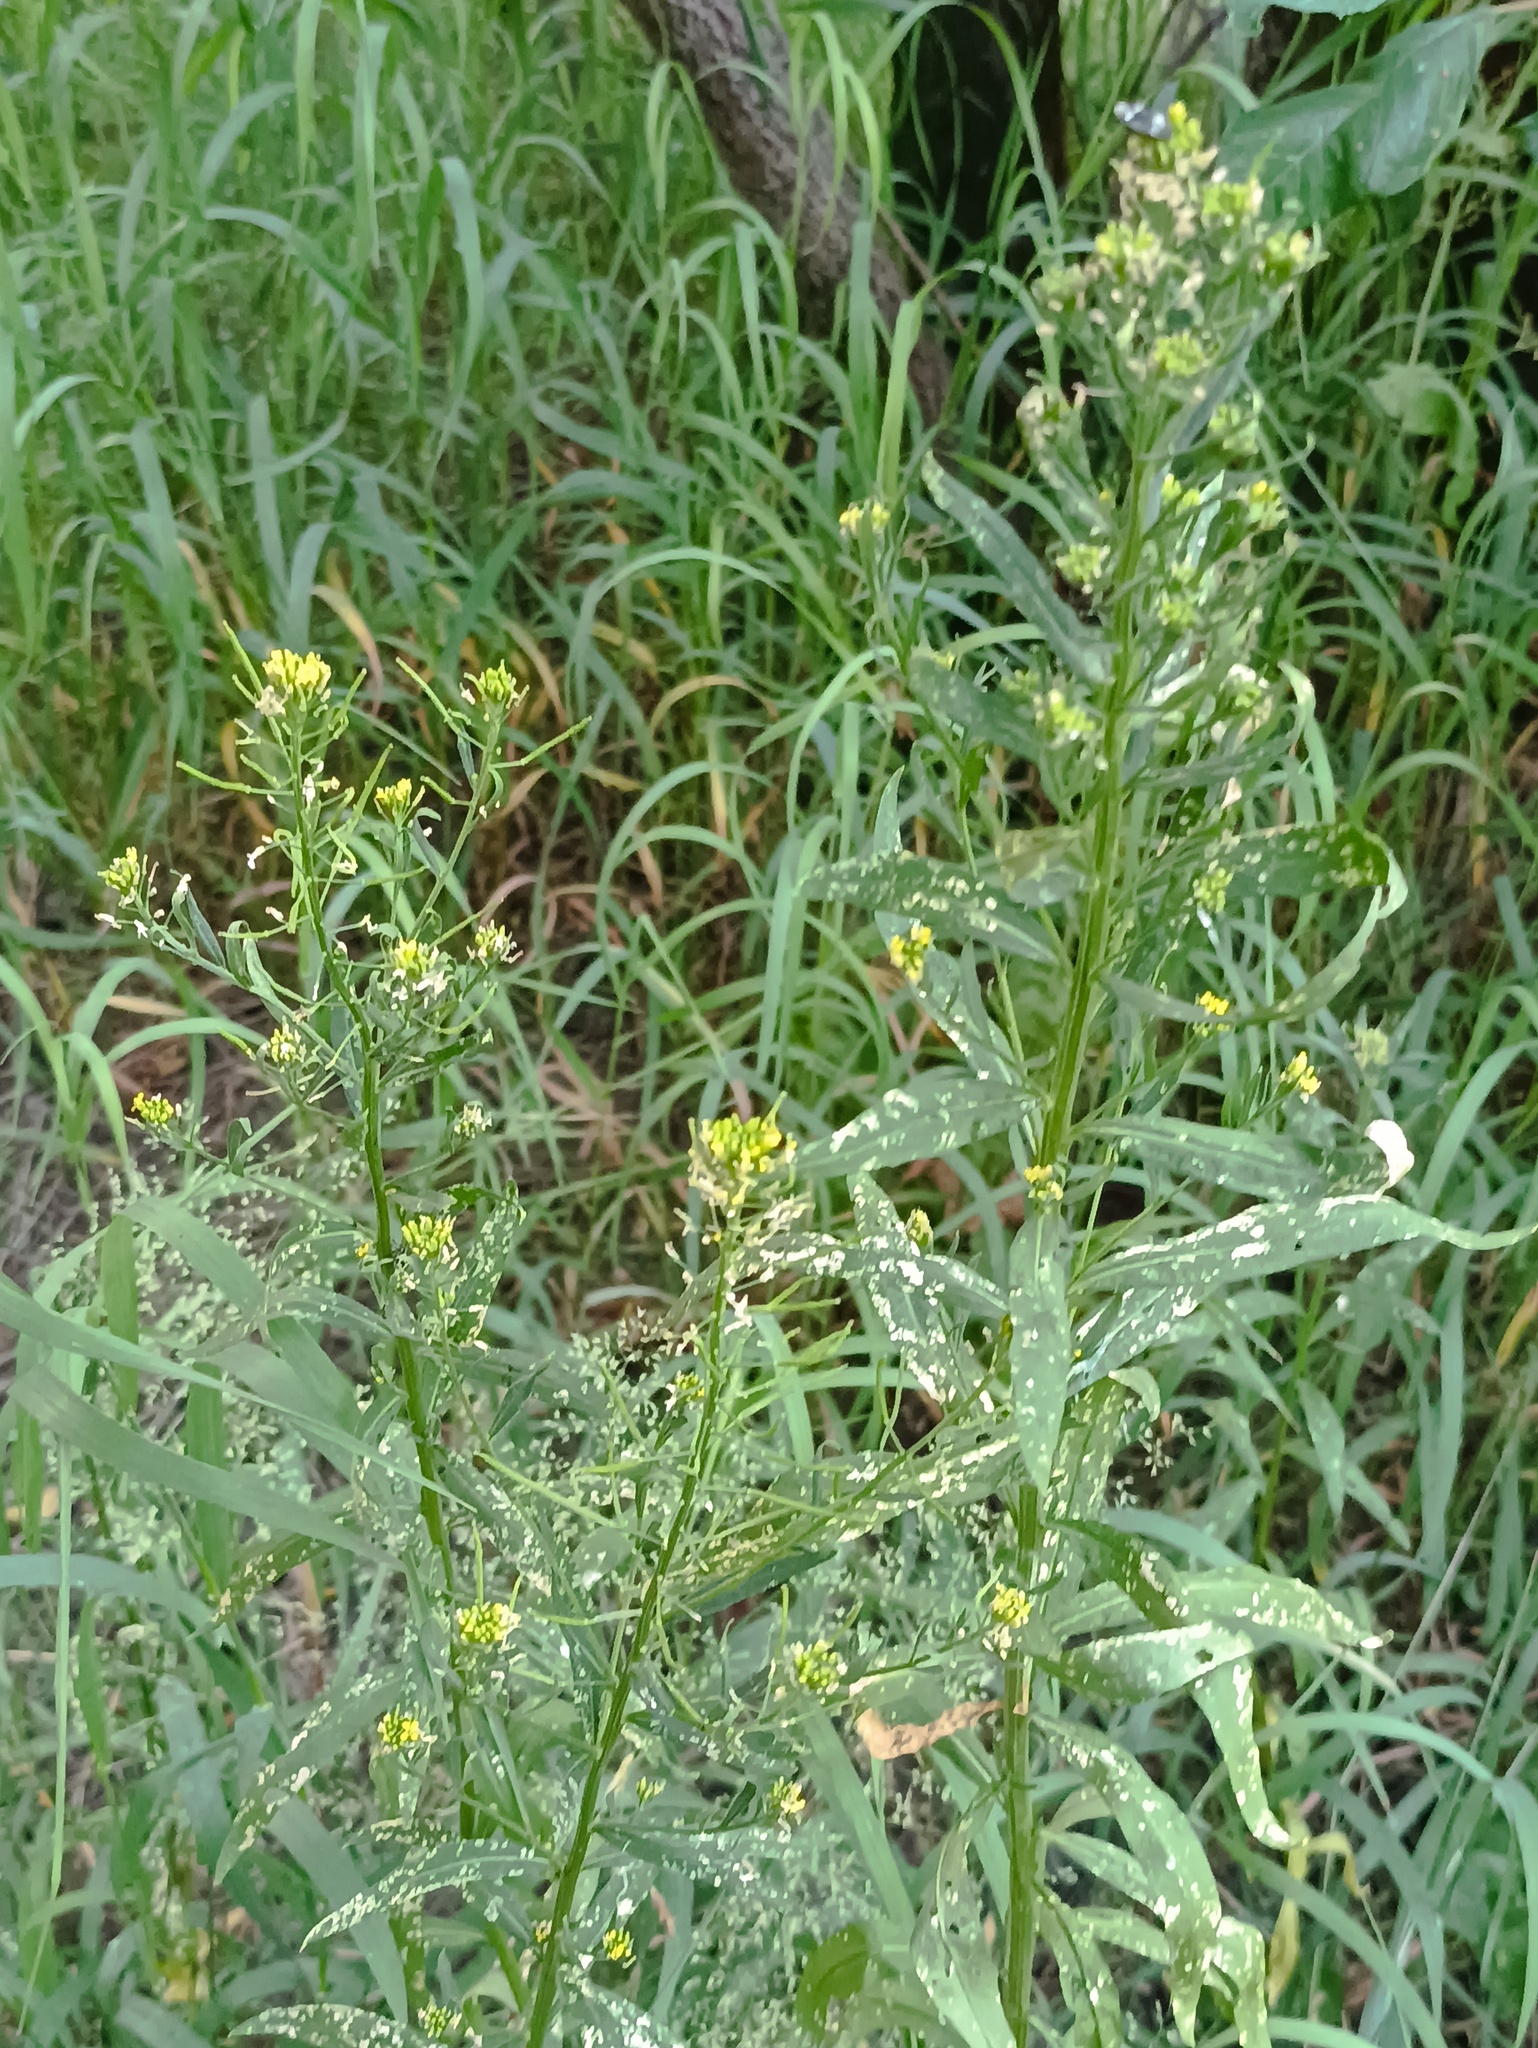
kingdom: Plantae
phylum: Tracheophyta
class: Magnoliopsida
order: Brassicales
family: Brassicaceae
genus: Erysimum
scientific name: Erysimum cheiranthoides
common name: Treacle mustard
